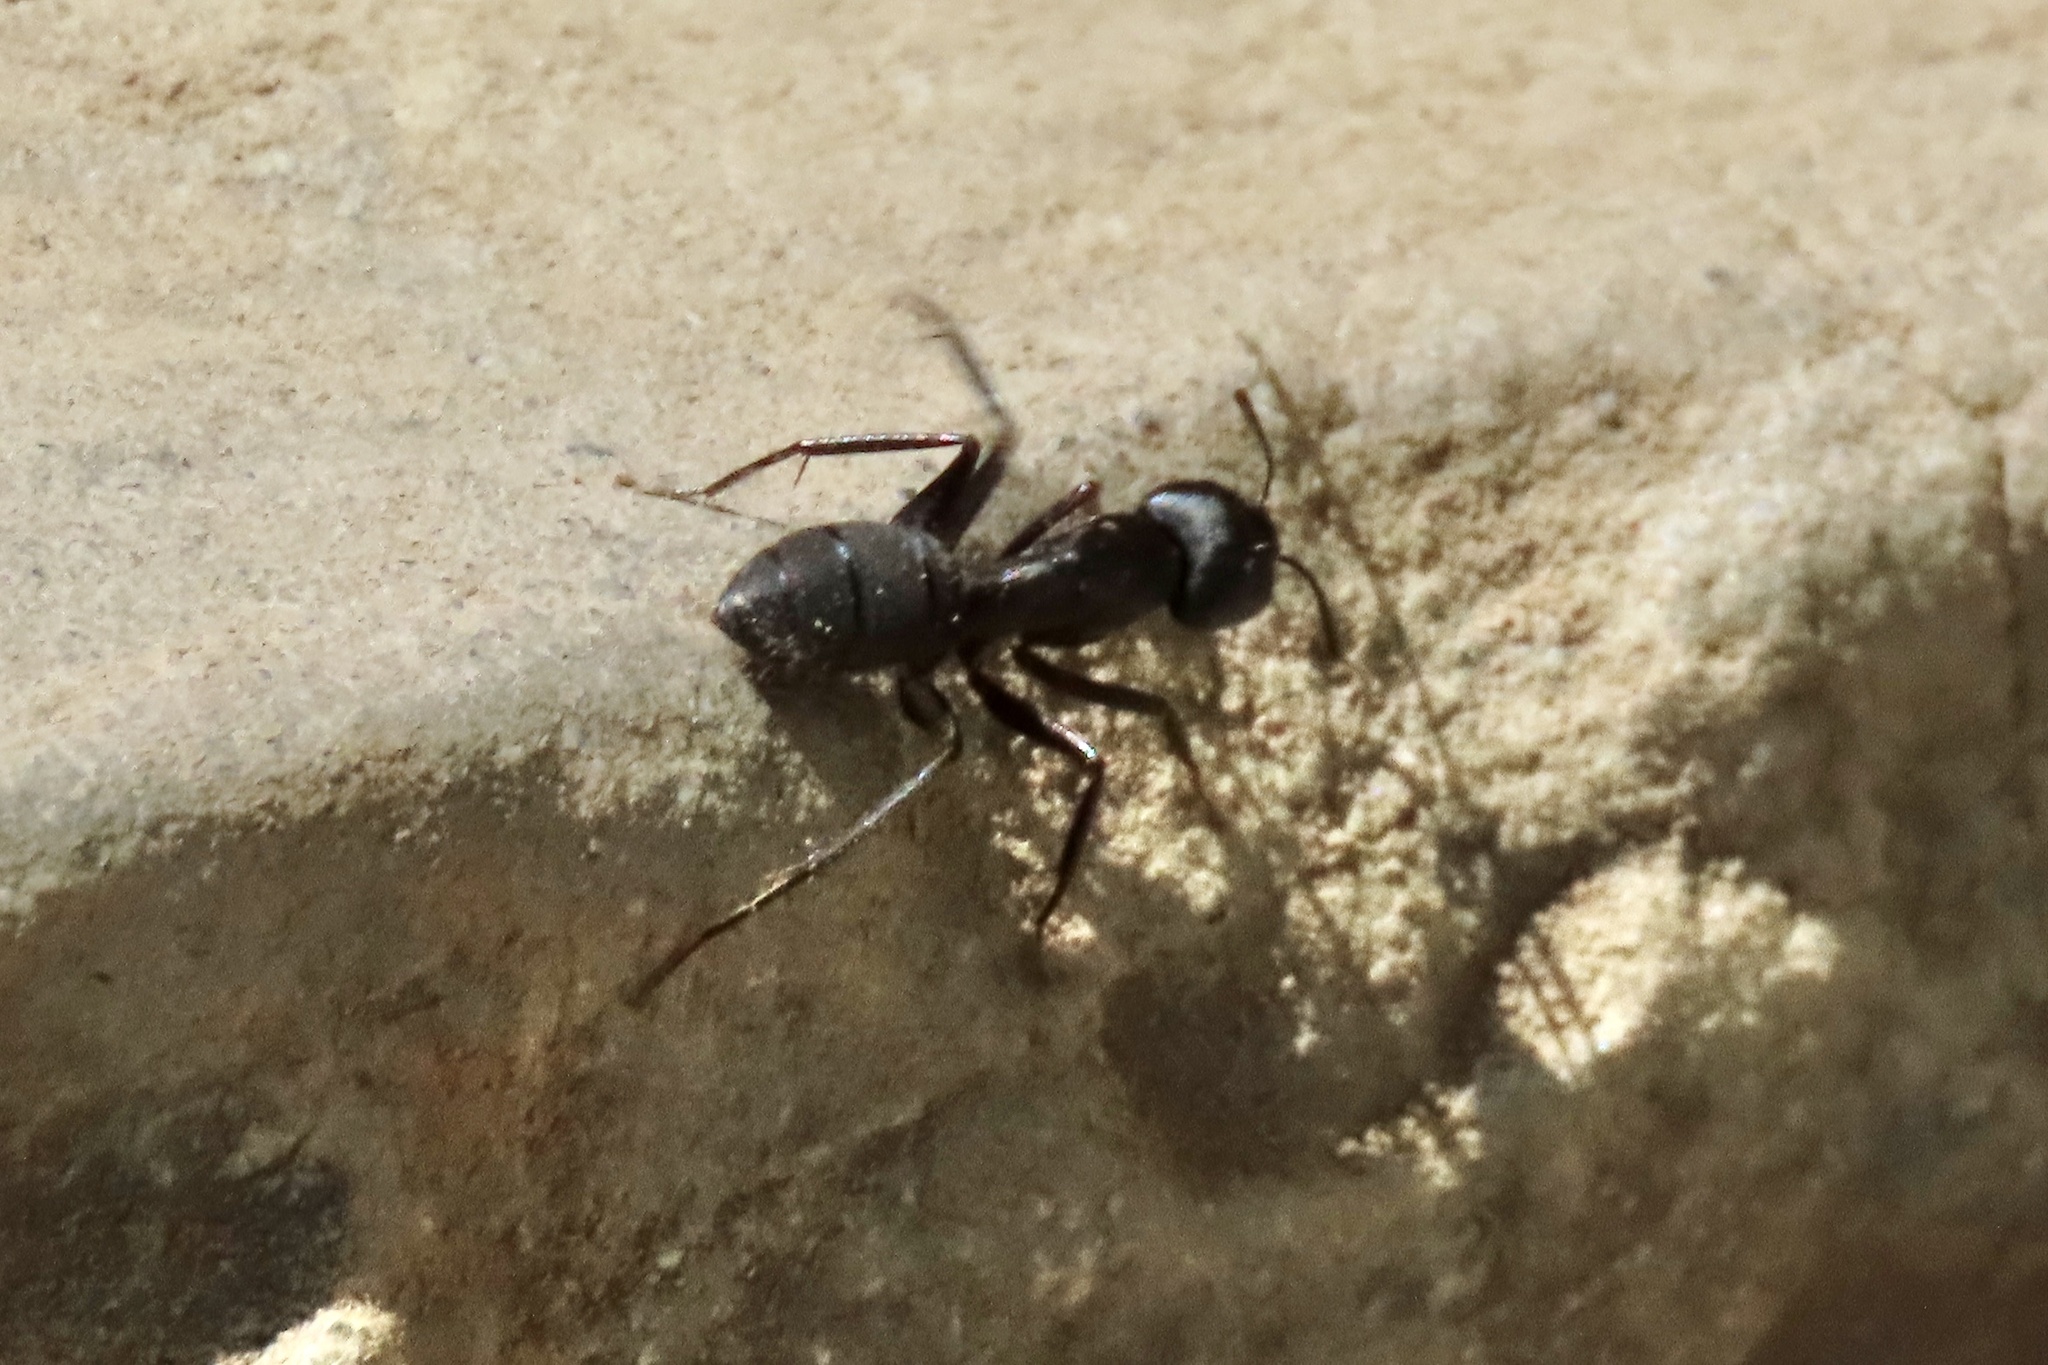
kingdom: Animalia
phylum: Arthropoda
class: Insecta
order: Hymenoptera
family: Formicidae
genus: Camponotus
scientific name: Camponotus vicinus
